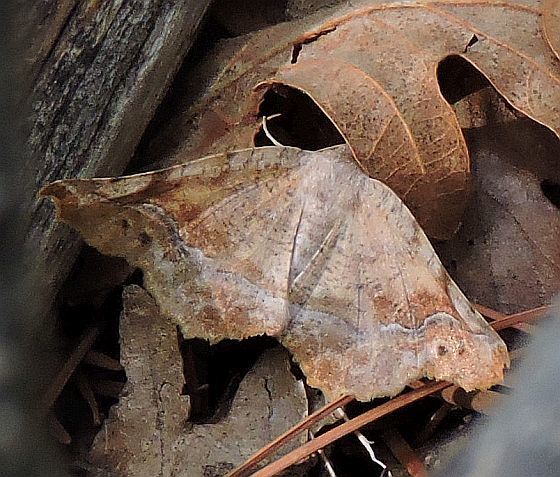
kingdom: Animalia
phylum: Arthropoda
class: Insecta
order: Lepidoptera
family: Geometridae
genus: Caripeta
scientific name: Caripeta hilumaria
